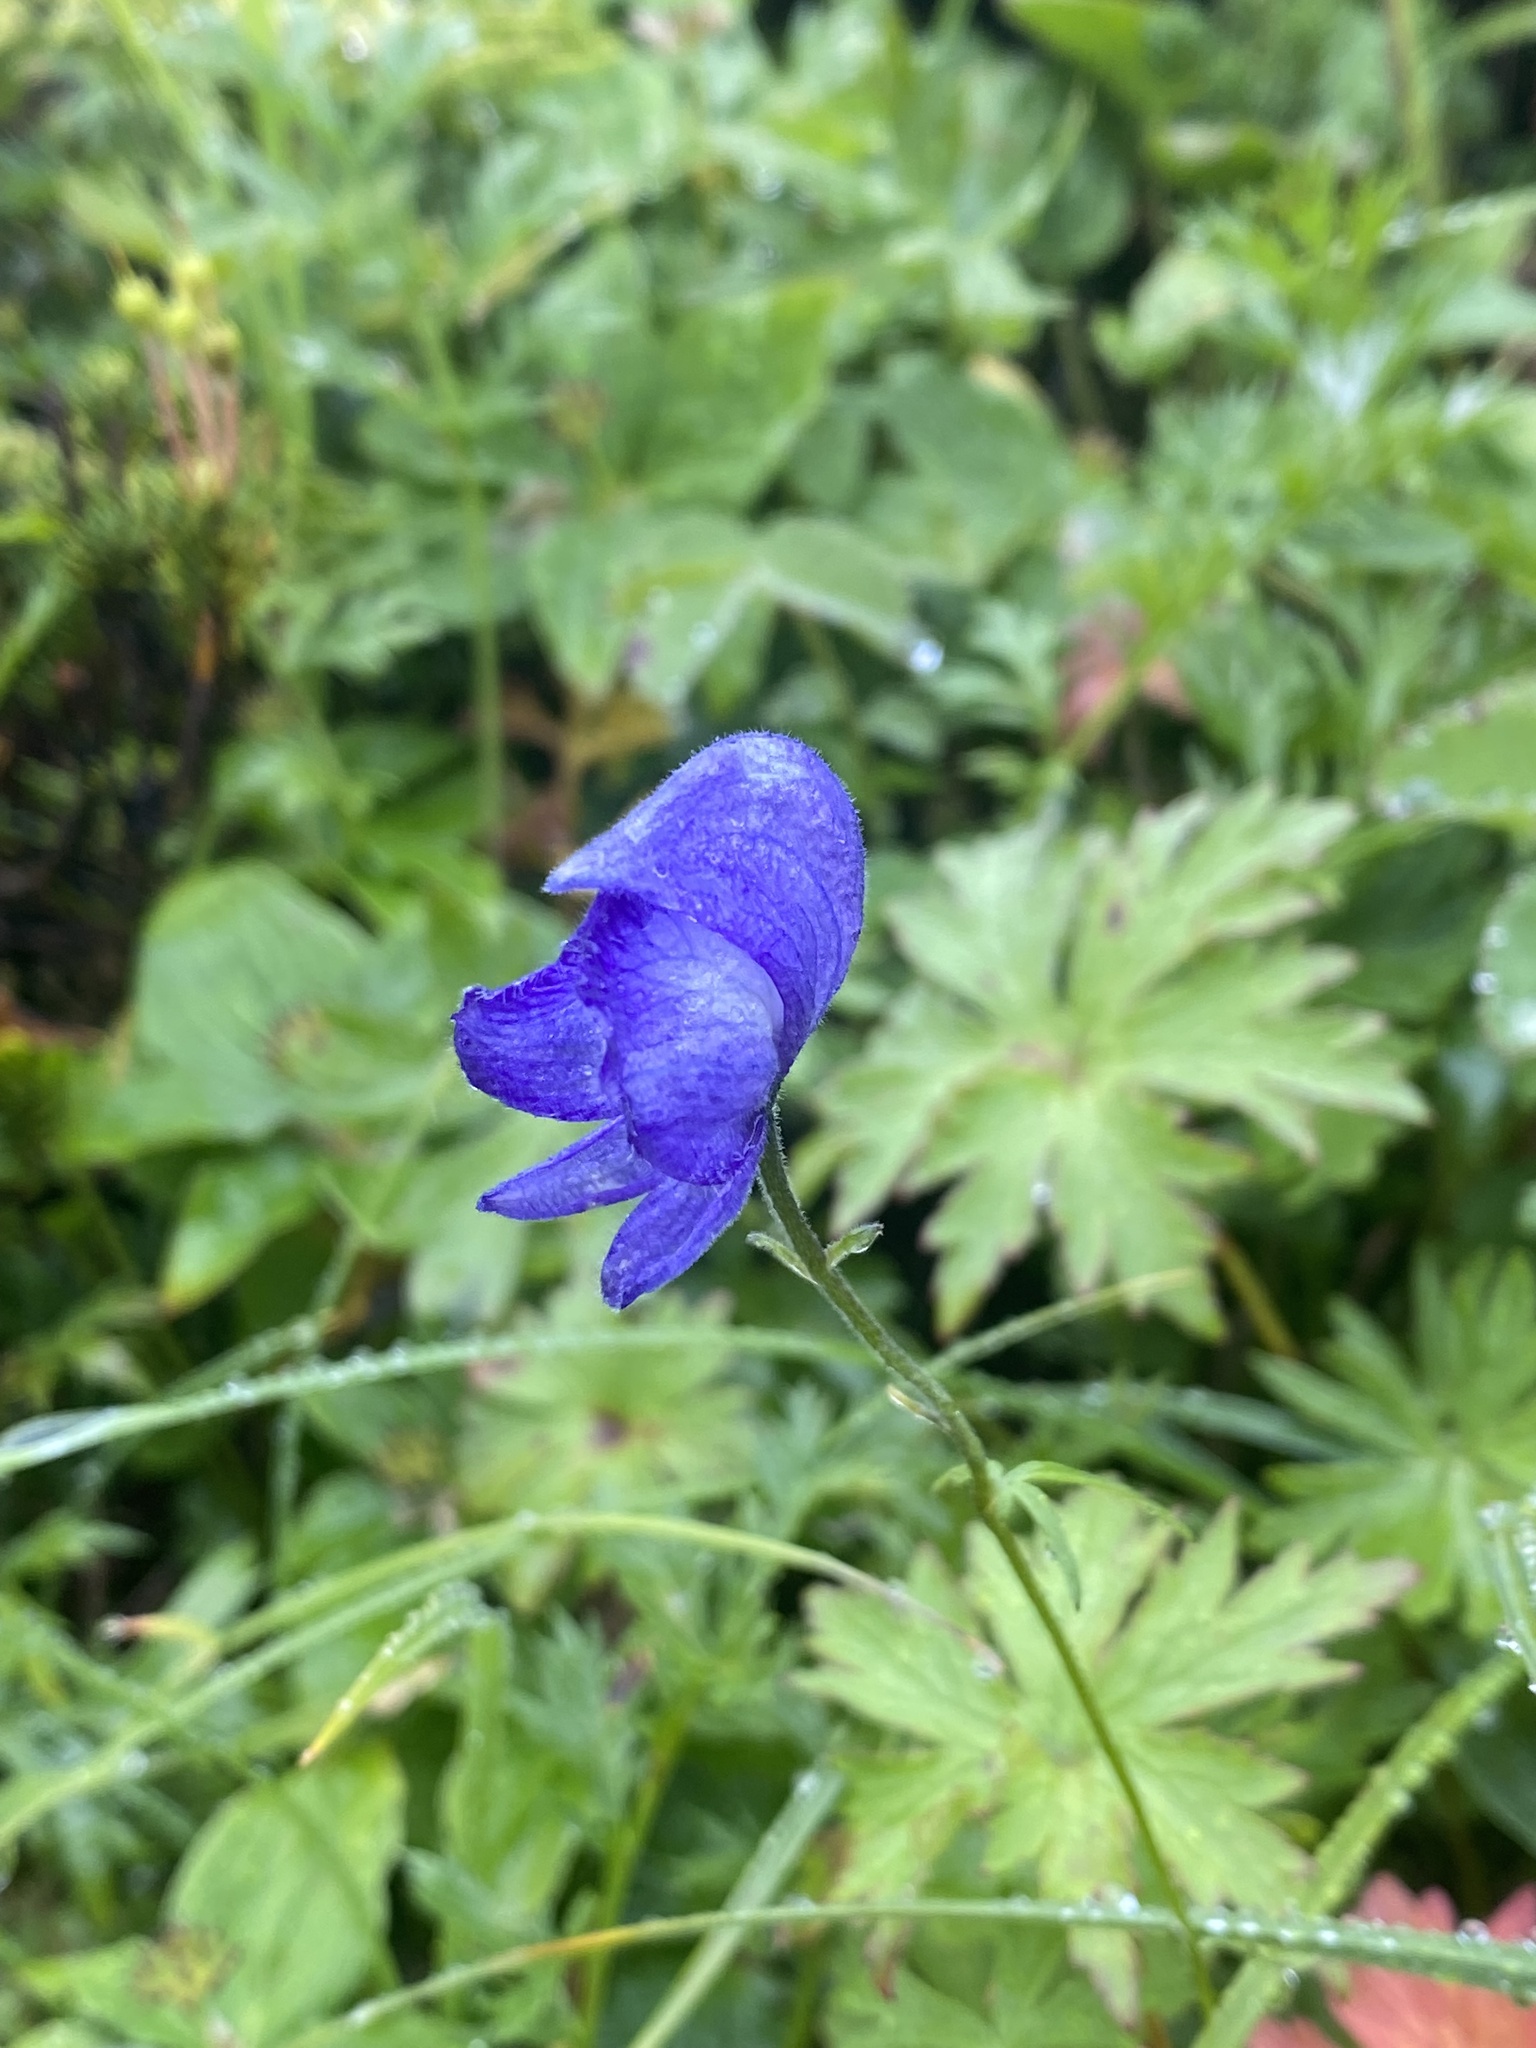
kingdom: Plantae
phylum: Tracheophyta
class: Magnoliopsida
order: Ranunculales
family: Ranunculaceae
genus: Aconitum
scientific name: Aconitum delphiniifolium
